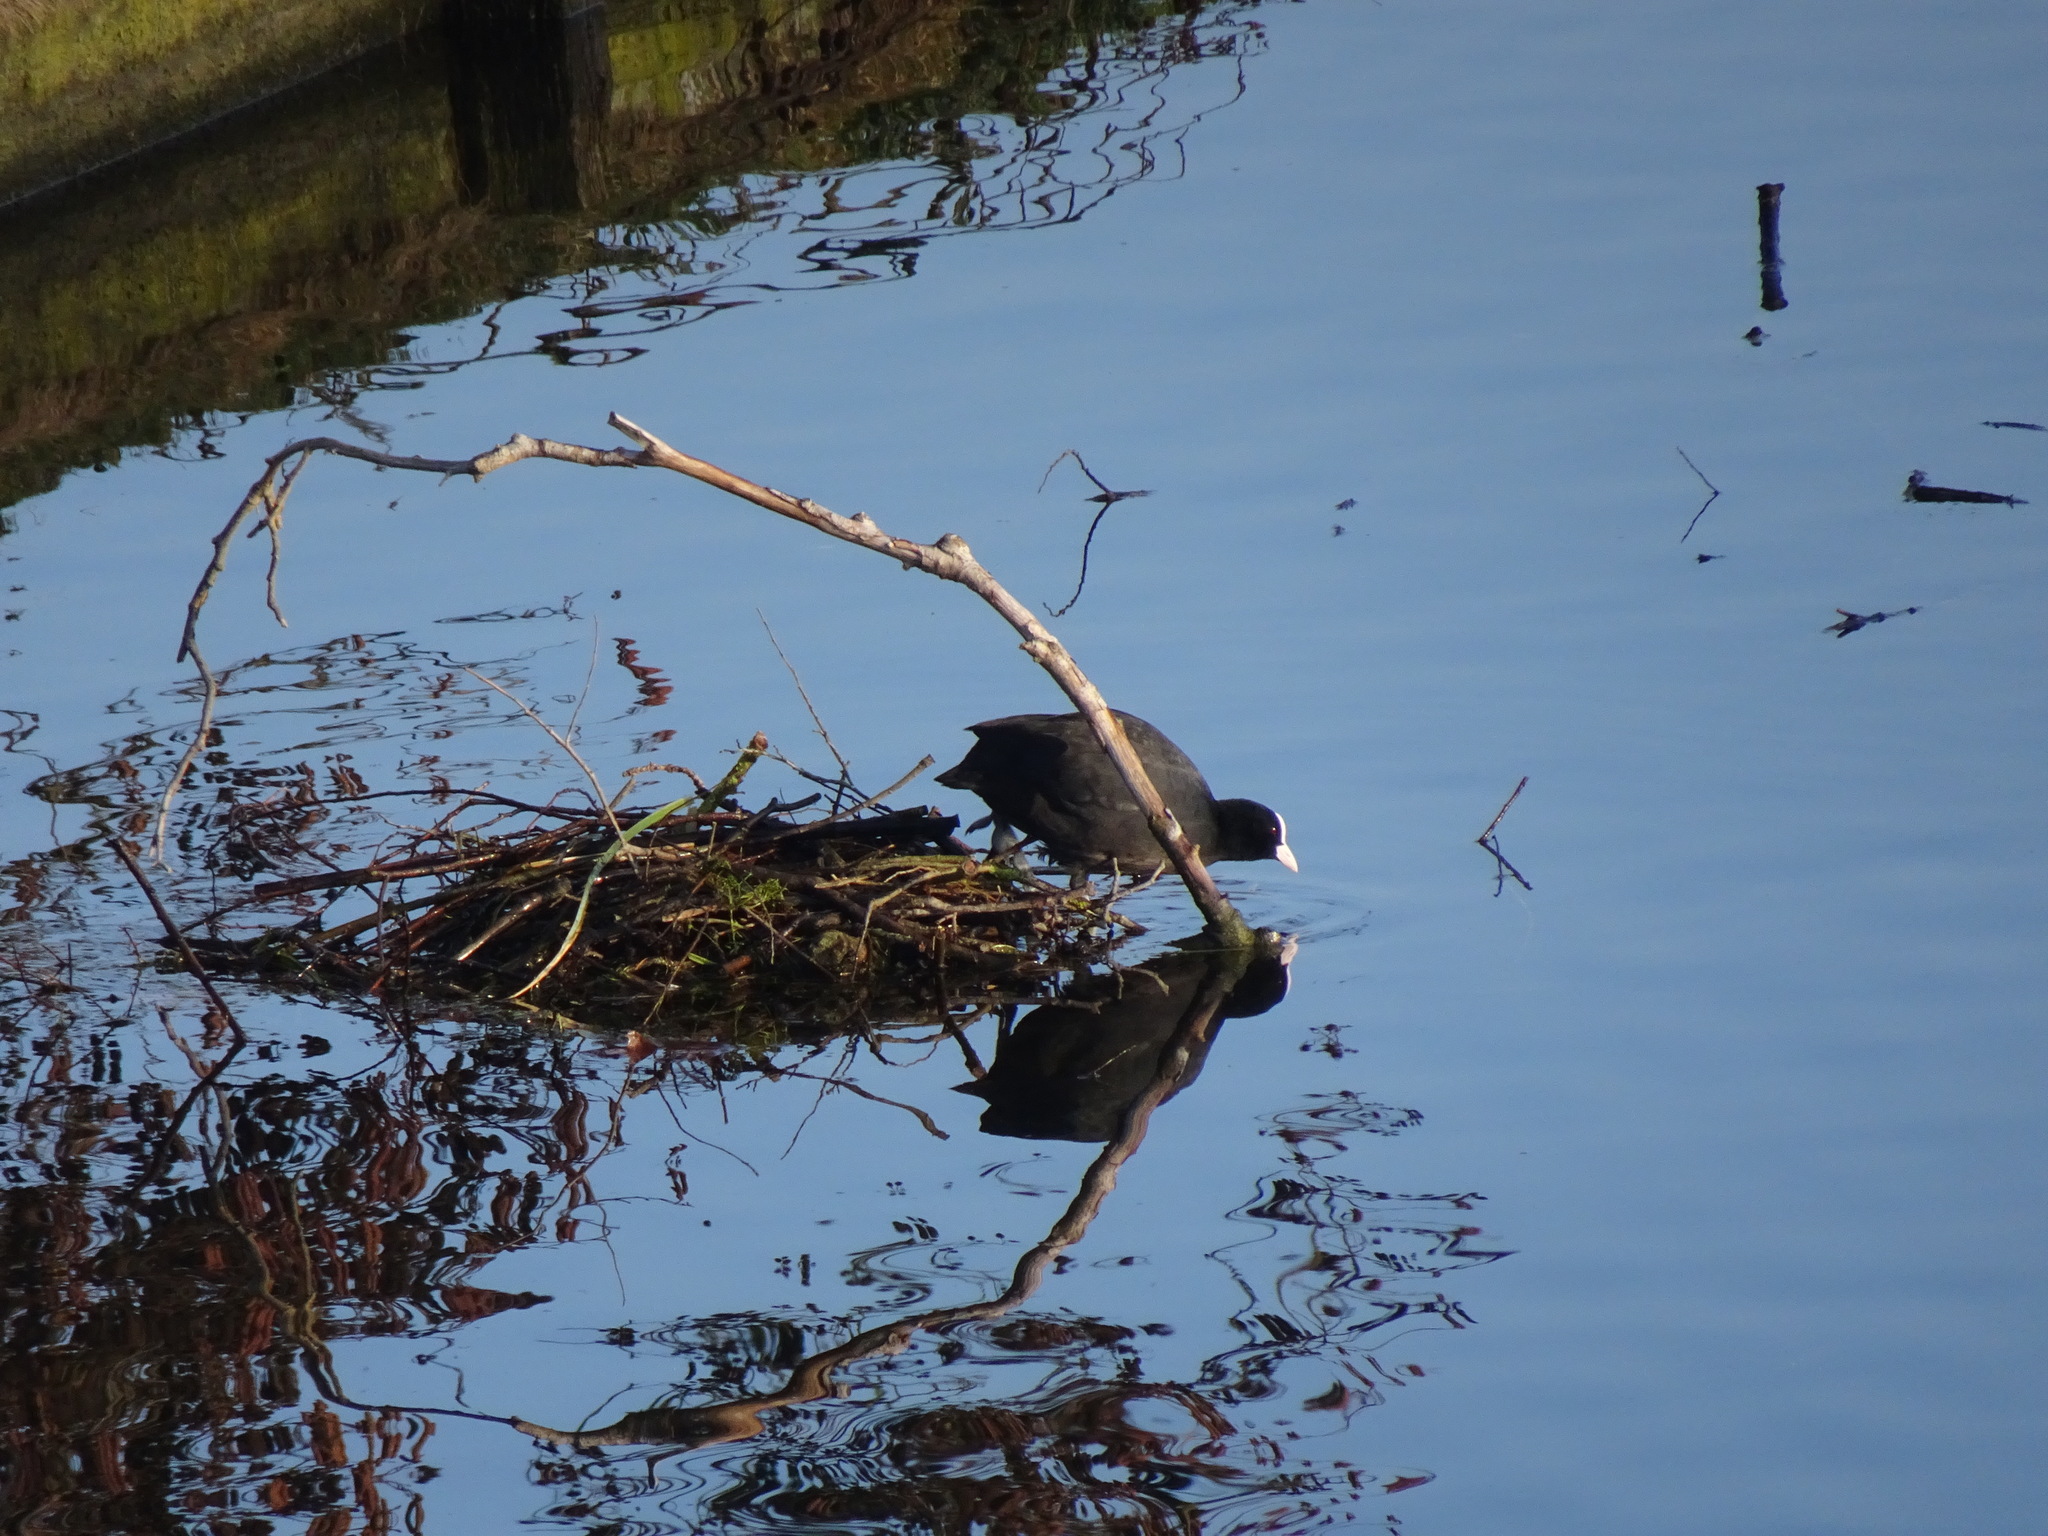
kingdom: Animalia
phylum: Chordata
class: Aves
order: Gruiformes
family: Rallidae
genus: Fulica
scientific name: Fulica atra
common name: Eurasian coot
